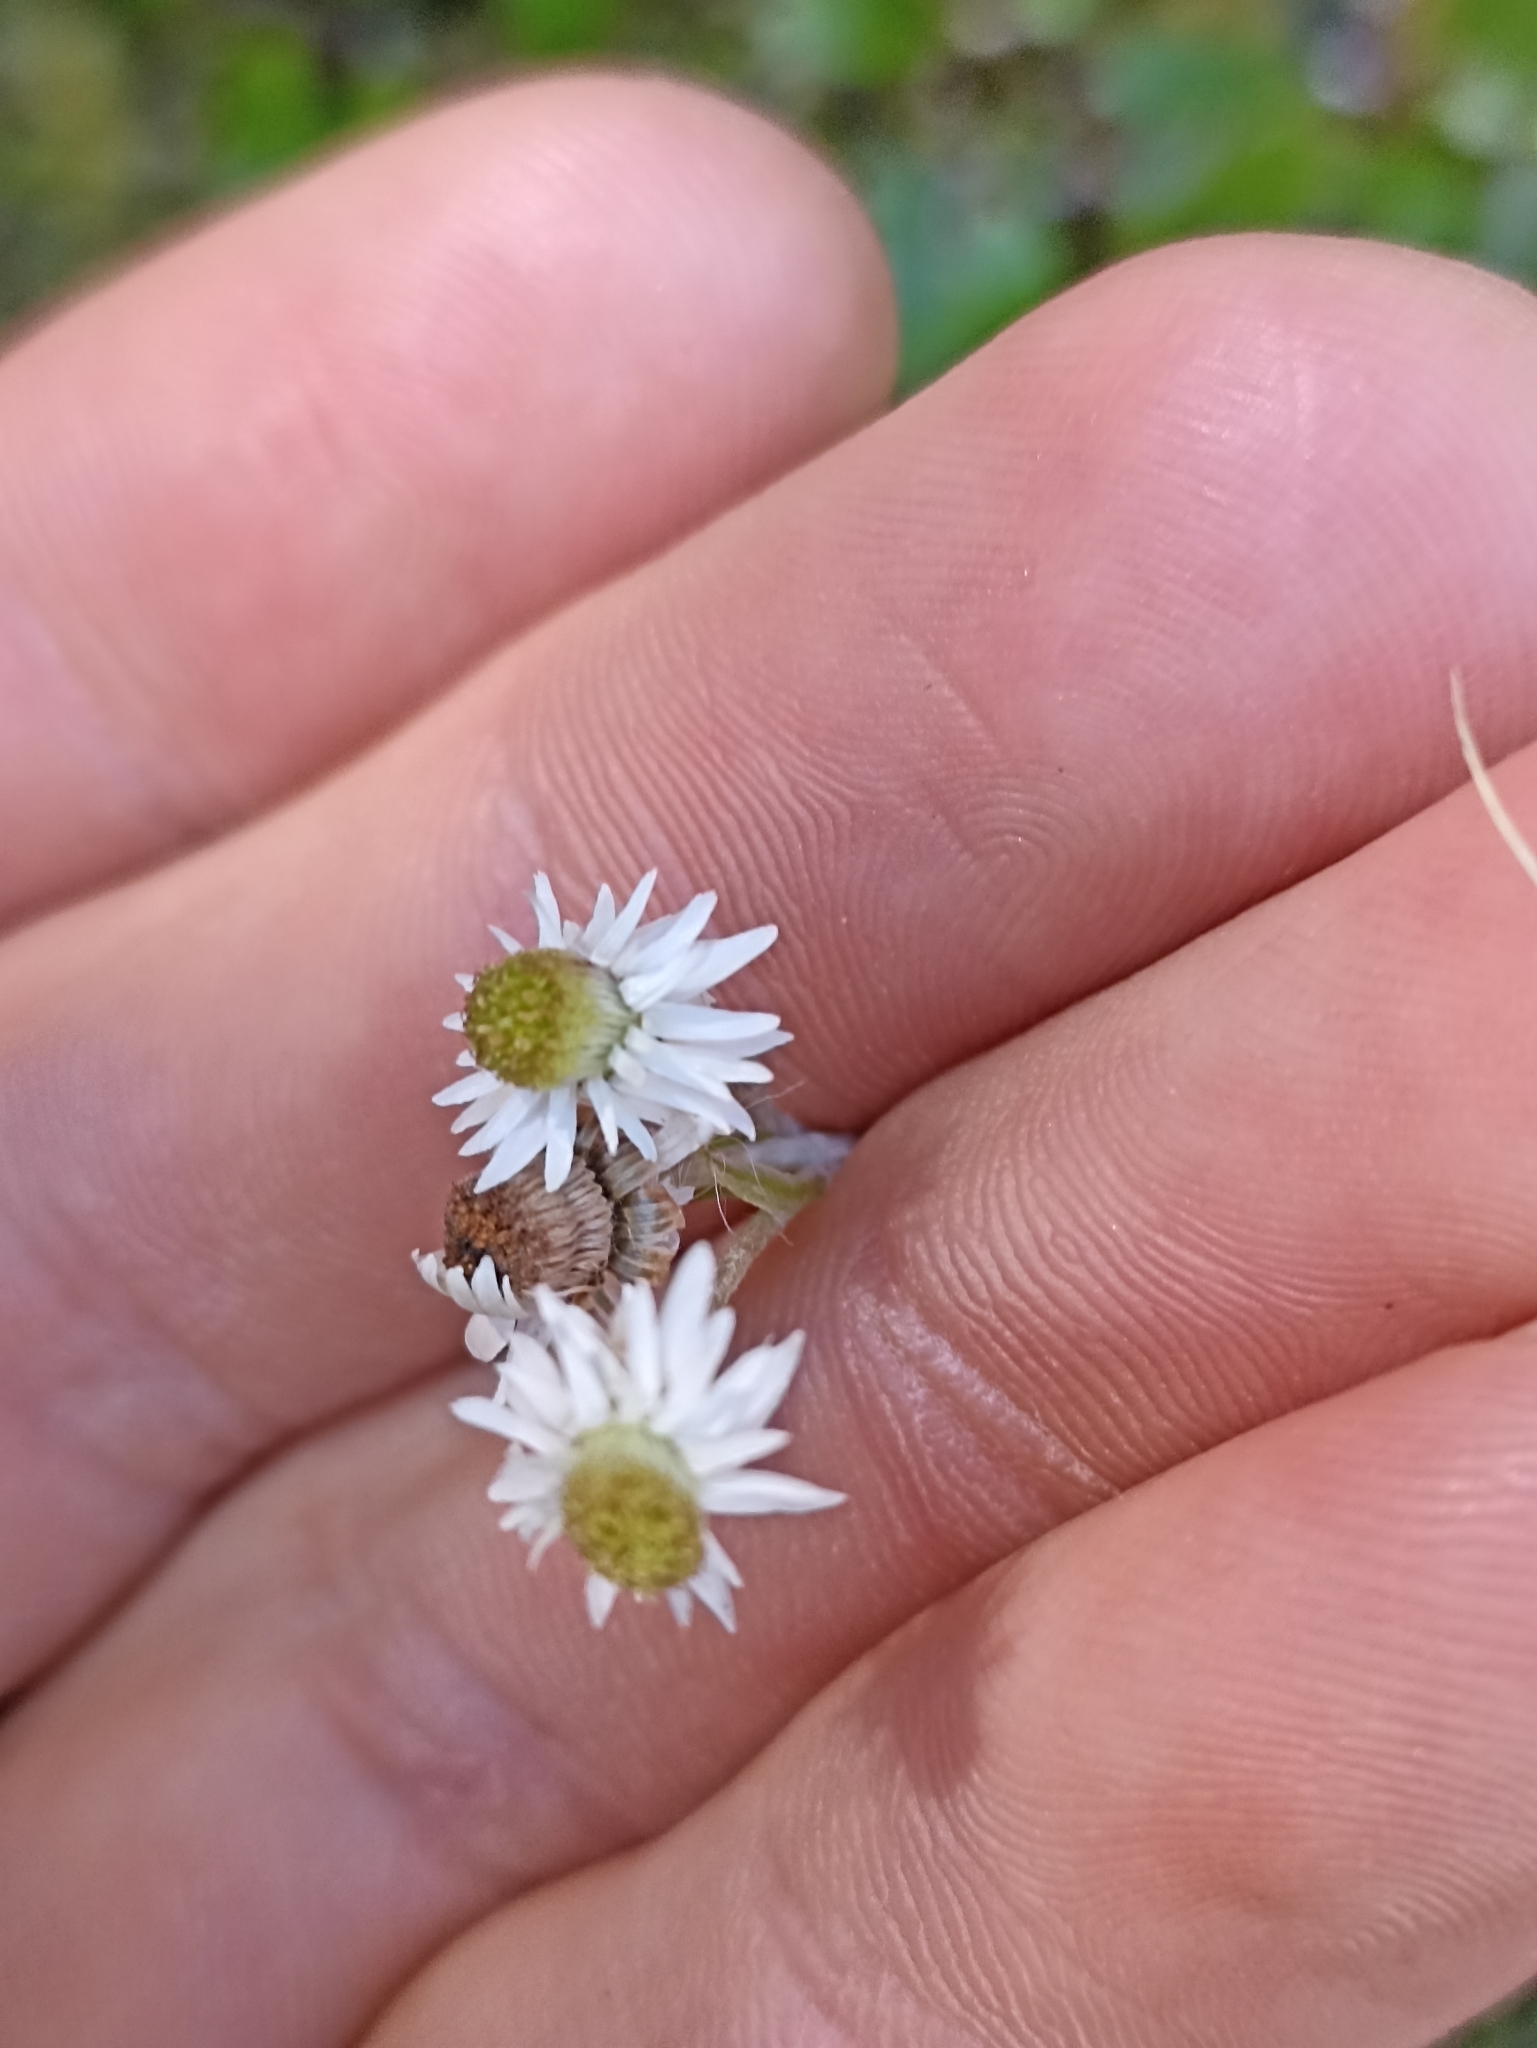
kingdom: Plantae
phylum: Tracheophyta
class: Magnoliopsida
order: Asterales
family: Asteraceae
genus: Anaphalioides
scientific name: Anaphalioides trinervis
